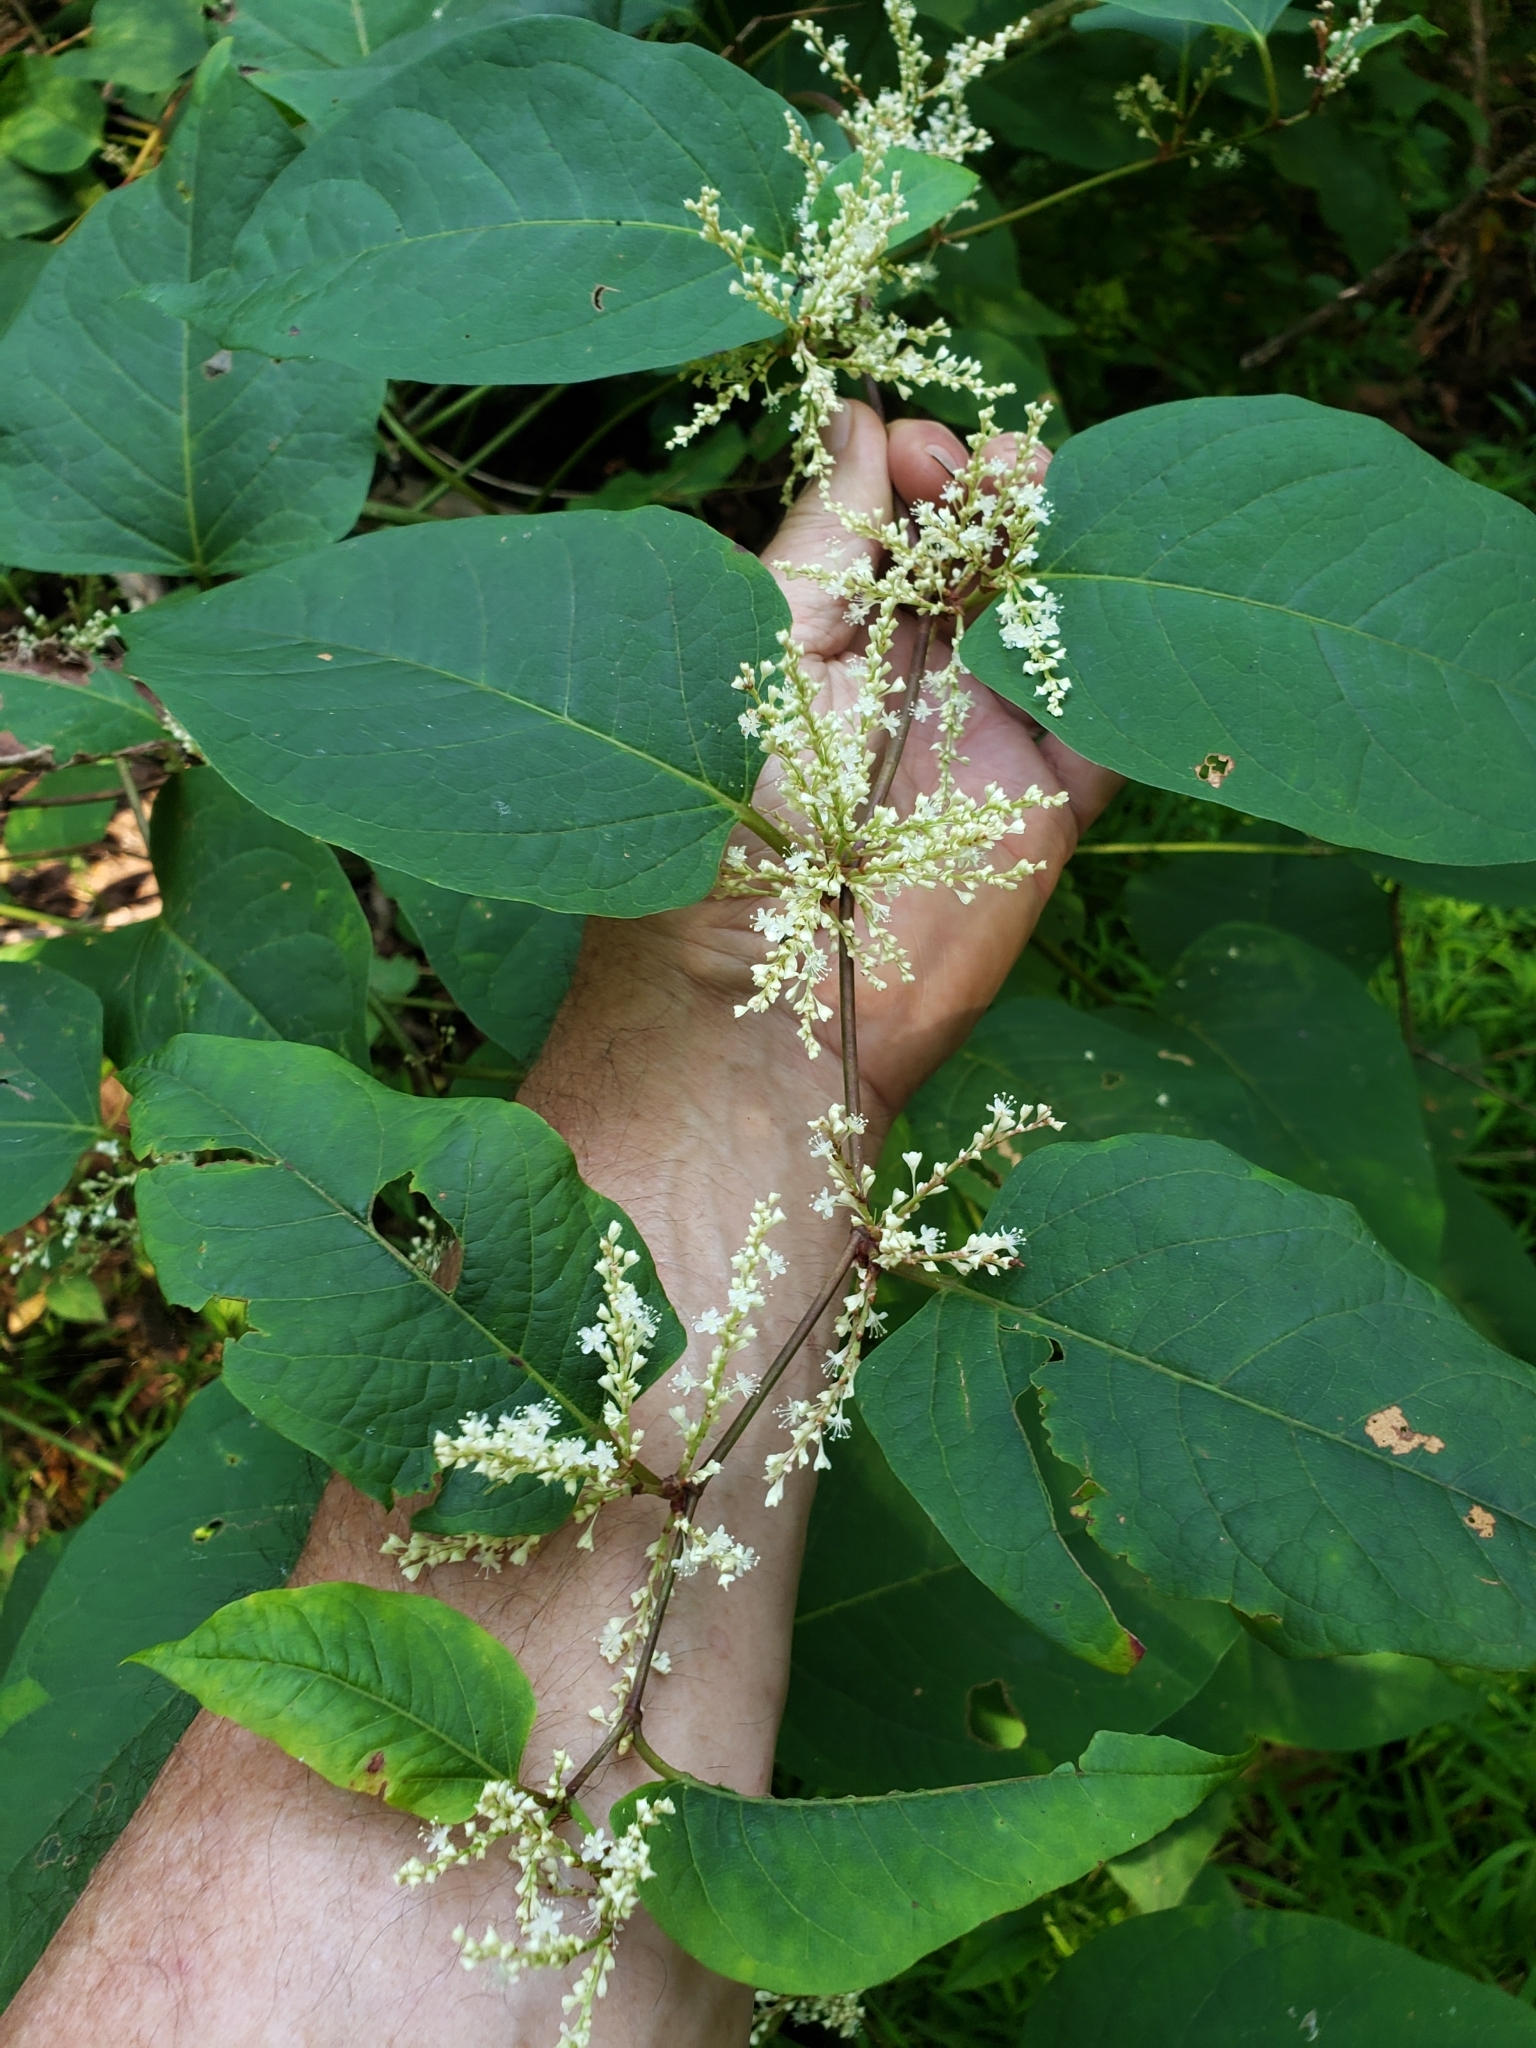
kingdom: Plantae
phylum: Tracheophyta
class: Magnoliopsida
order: Caryophyllales
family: Polygonaceae
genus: Reynoutria
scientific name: Reynoutria japonica
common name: Japanese knotweed
